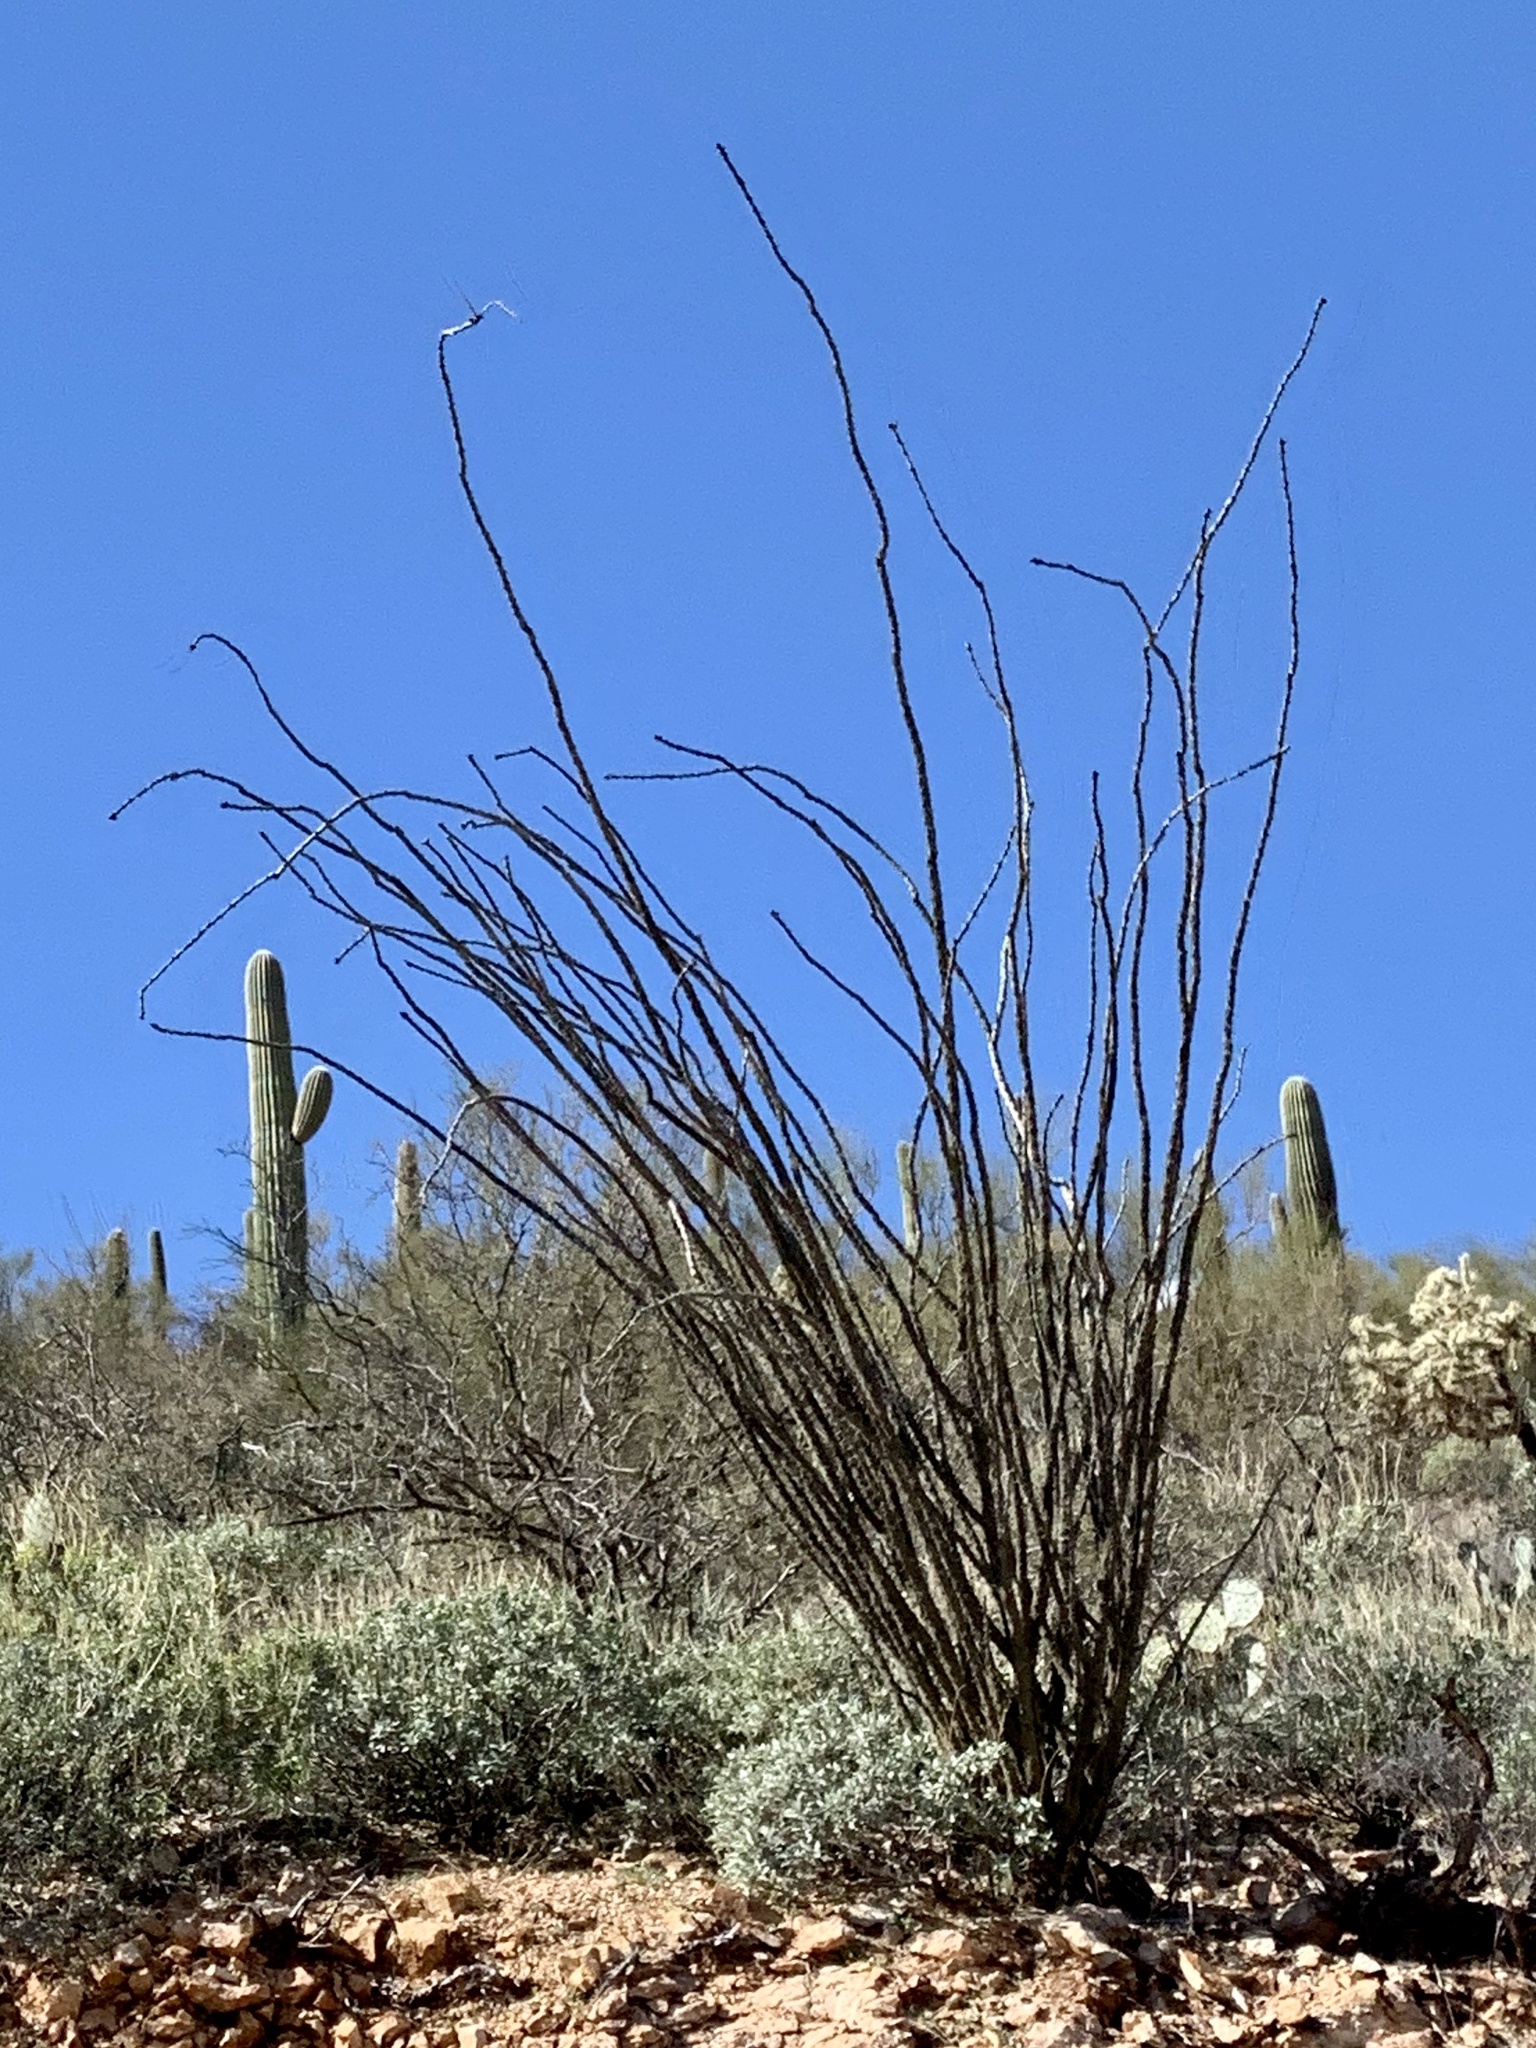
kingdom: Plantae
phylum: Tracheophyta
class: Magnoliopsida
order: Ericales
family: Fouquieriaceae
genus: Fouquieria
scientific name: Fouquieria splendens
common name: Vine-cactus
